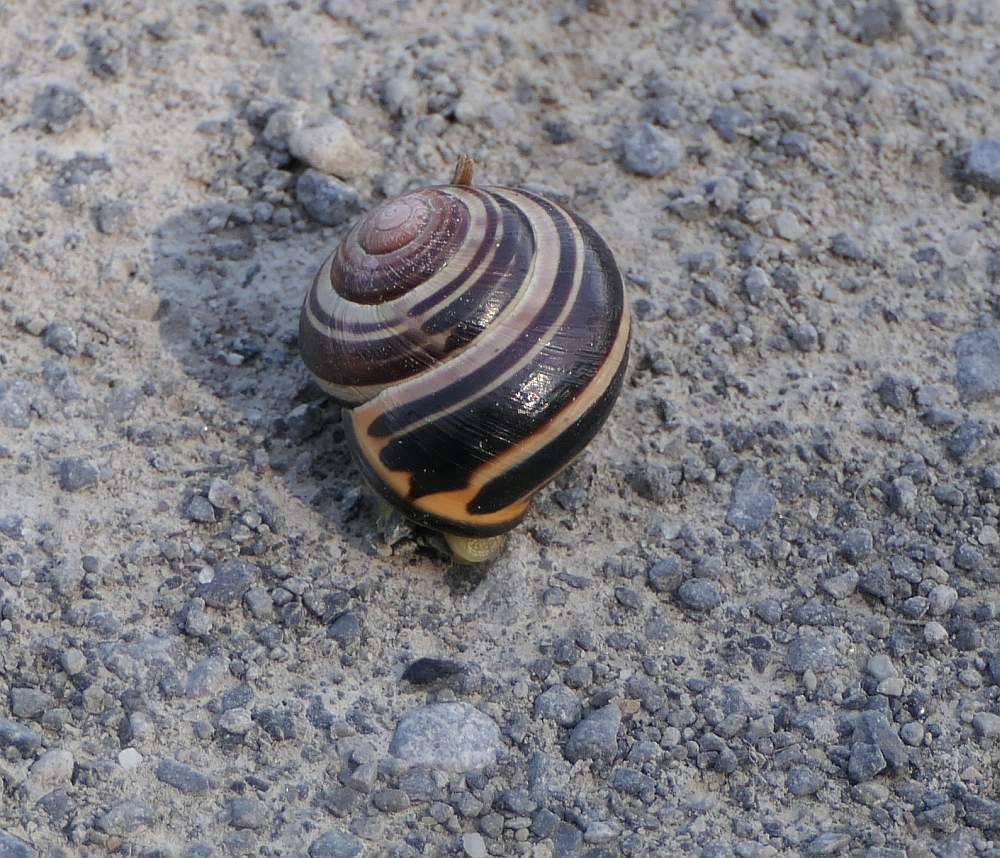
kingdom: Animalia
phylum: Mollusca
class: Gastropoda
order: Stylommatophora
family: Helicidae
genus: Cepaea
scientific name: Cepaea nemoralis
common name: Grovesnail
